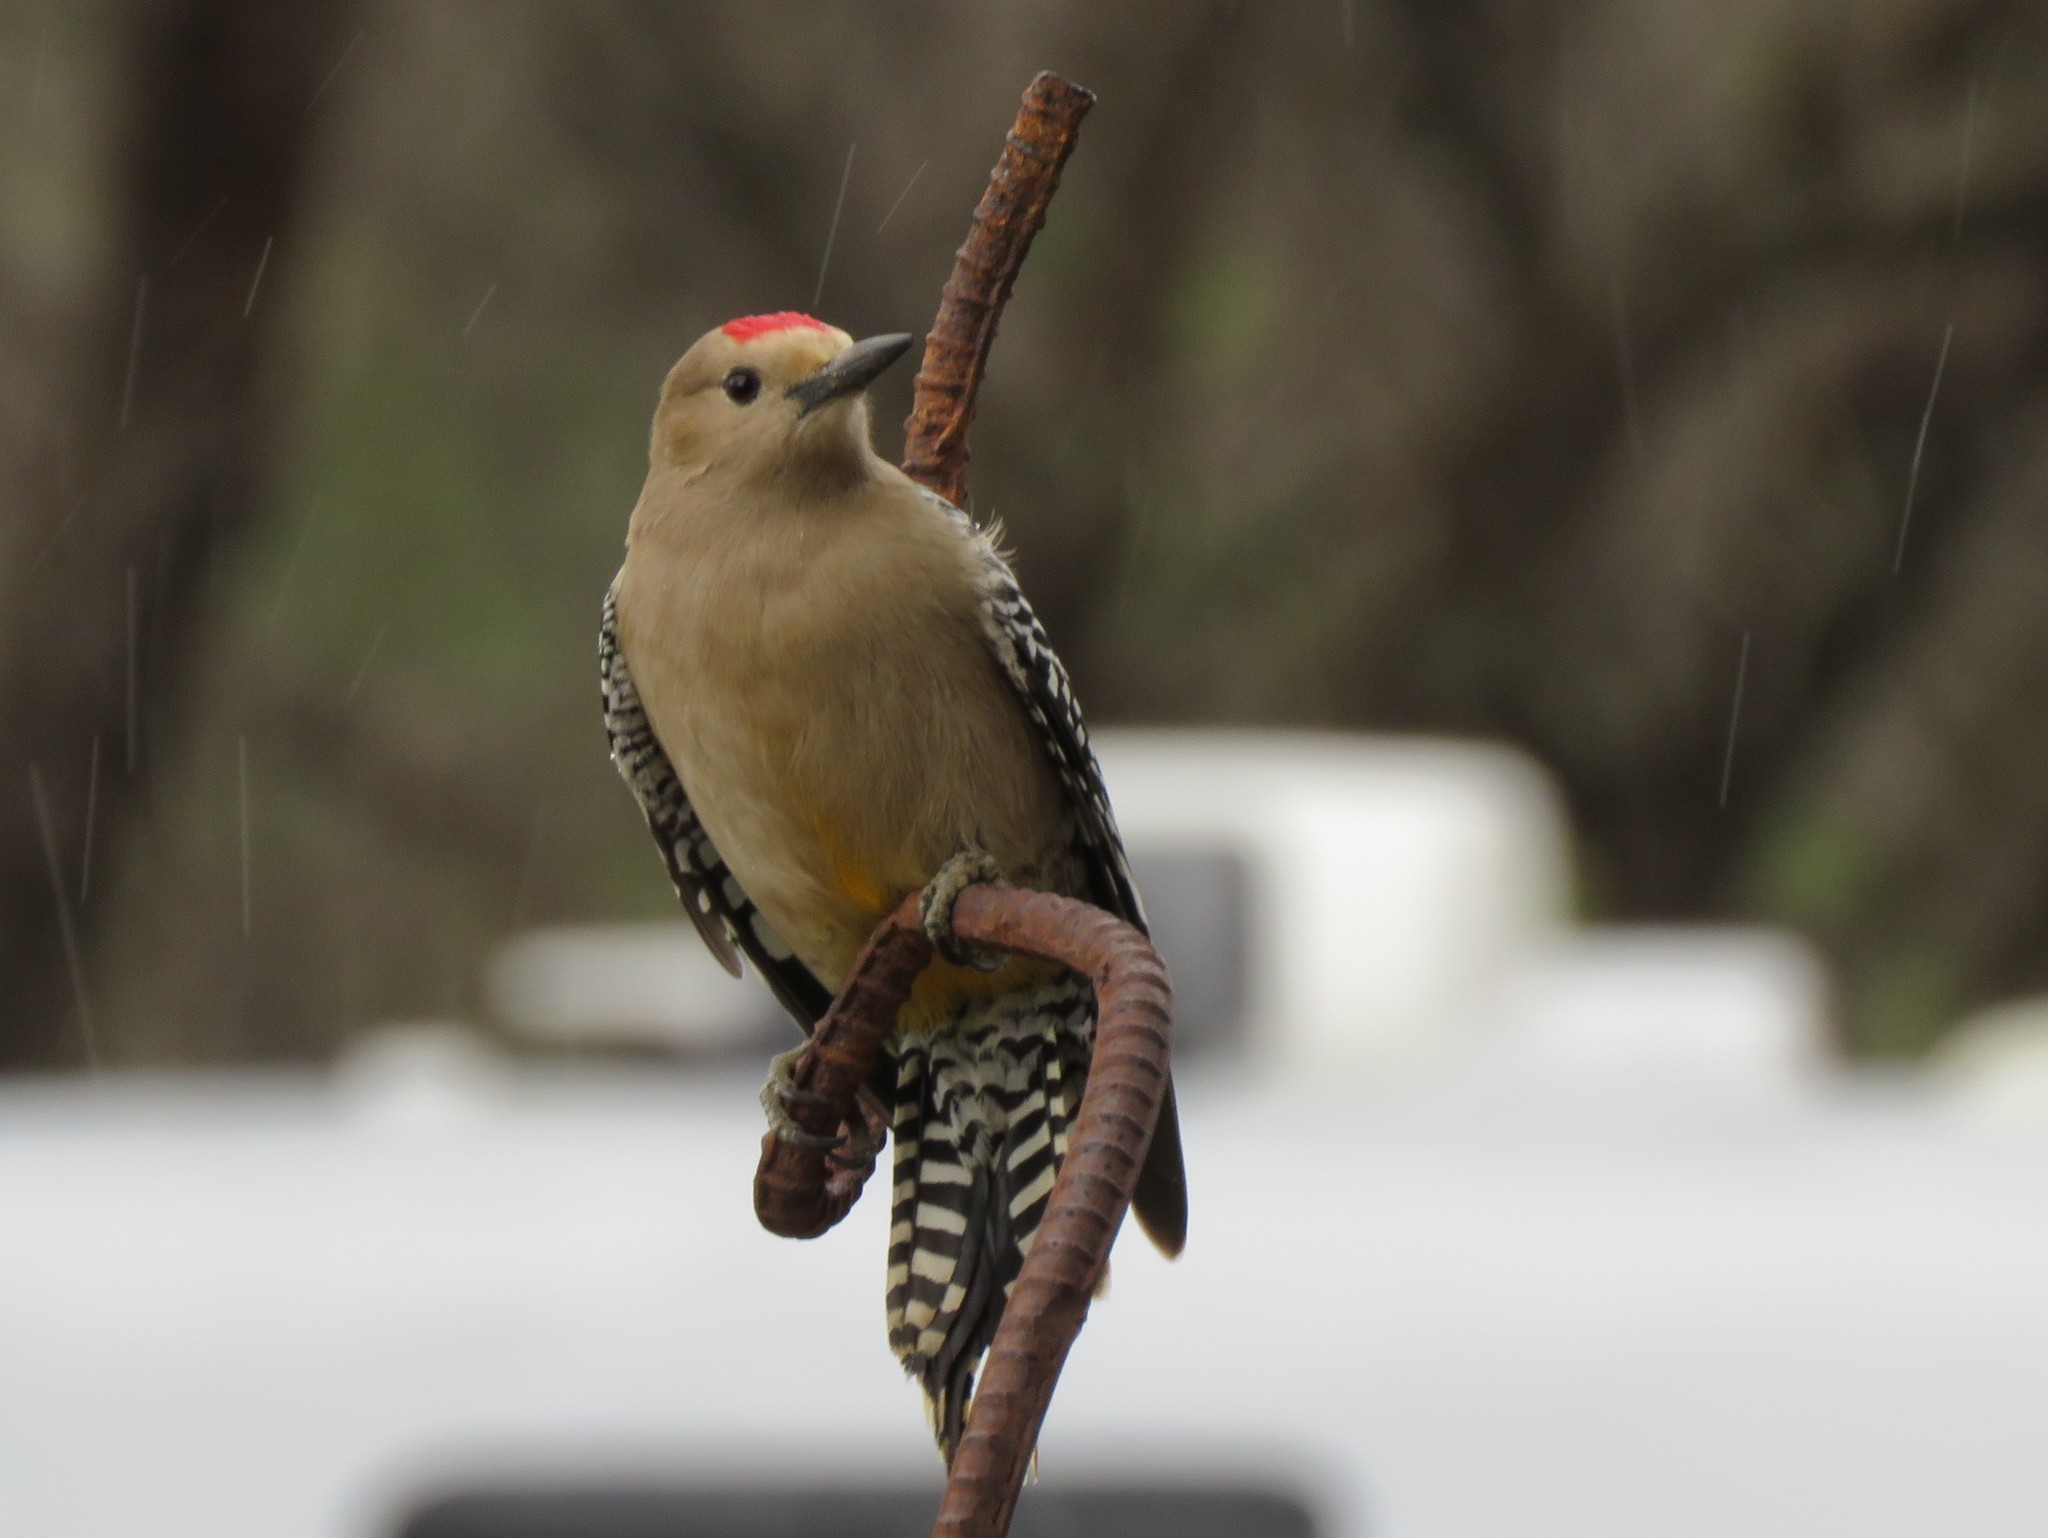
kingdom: Animalia
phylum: Chordata
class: Aves
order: Piciformes
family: Picidae
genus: Melanerpes
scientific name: Melanerpes uropygialis
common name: Gila woodpecker
